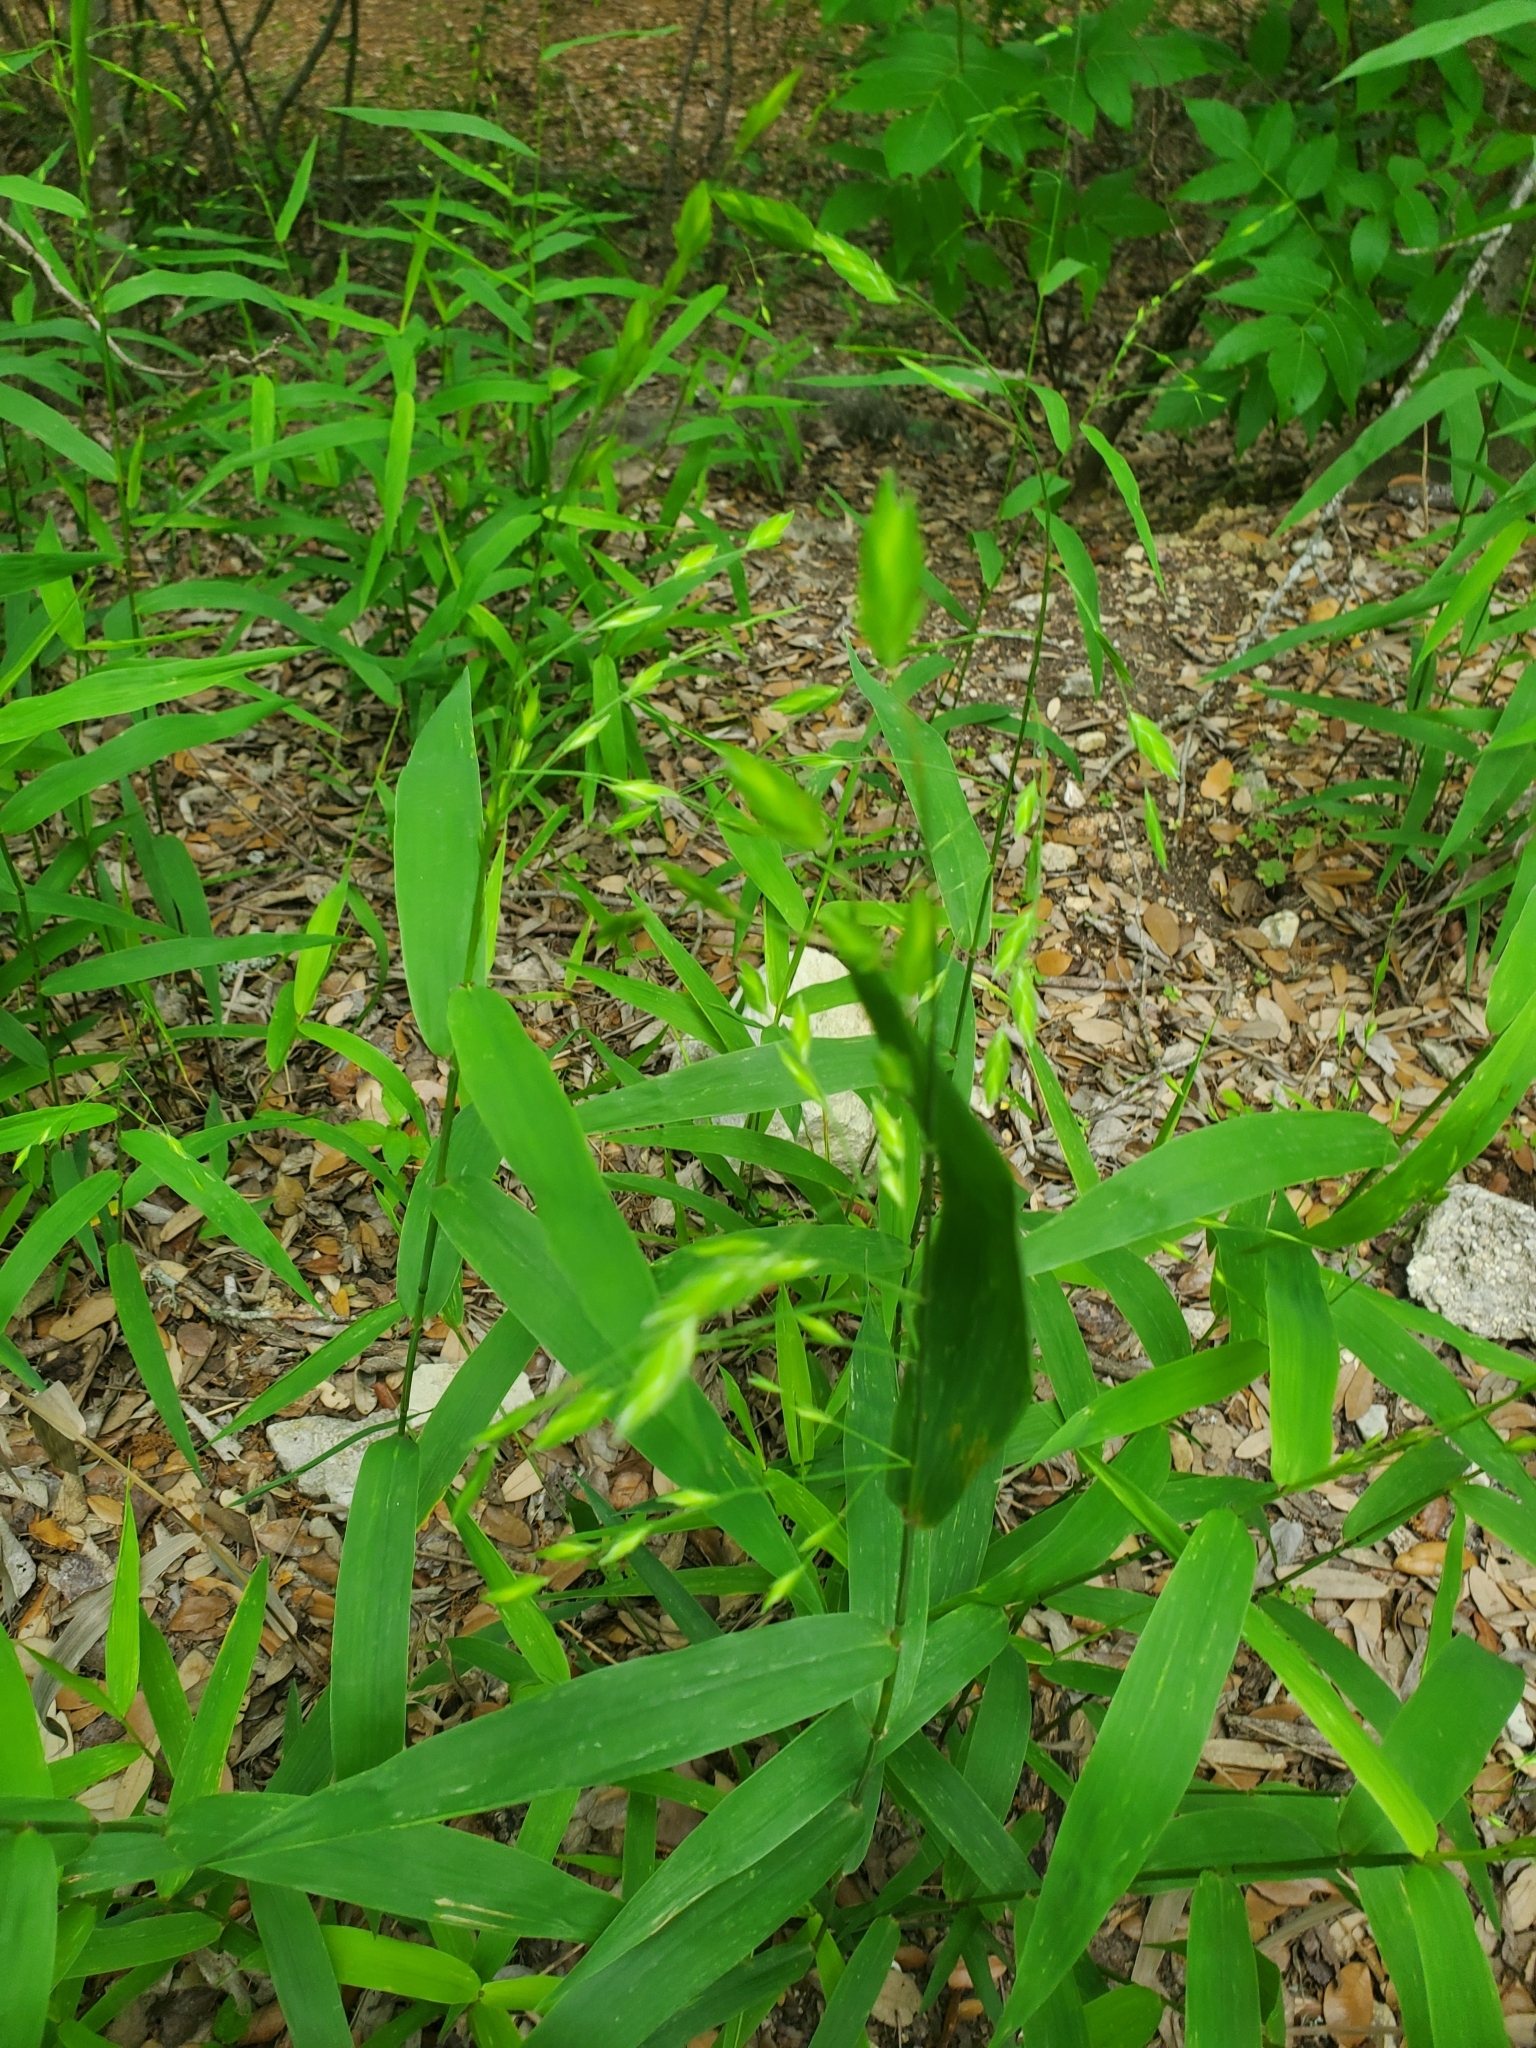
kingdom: Plantae
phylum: Tracheophyta
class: Liliopsida
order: Poales
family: Poaceae
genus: Chasmanthium
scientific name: Chasmanthium latifolium
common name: Broad-leaved chasmanthium
